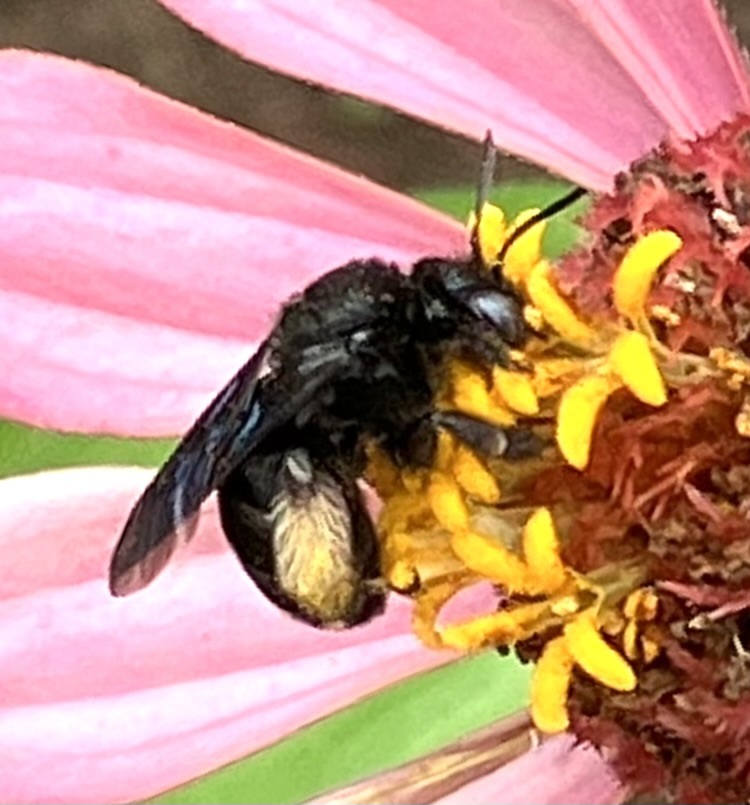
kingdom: Animalia
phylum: Arthropoda
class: Insecta
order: Hymenoptera
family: Apidae
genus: Melissodes
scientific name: Melissodes bimaculatus
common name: Two-spotted long-horned bee
